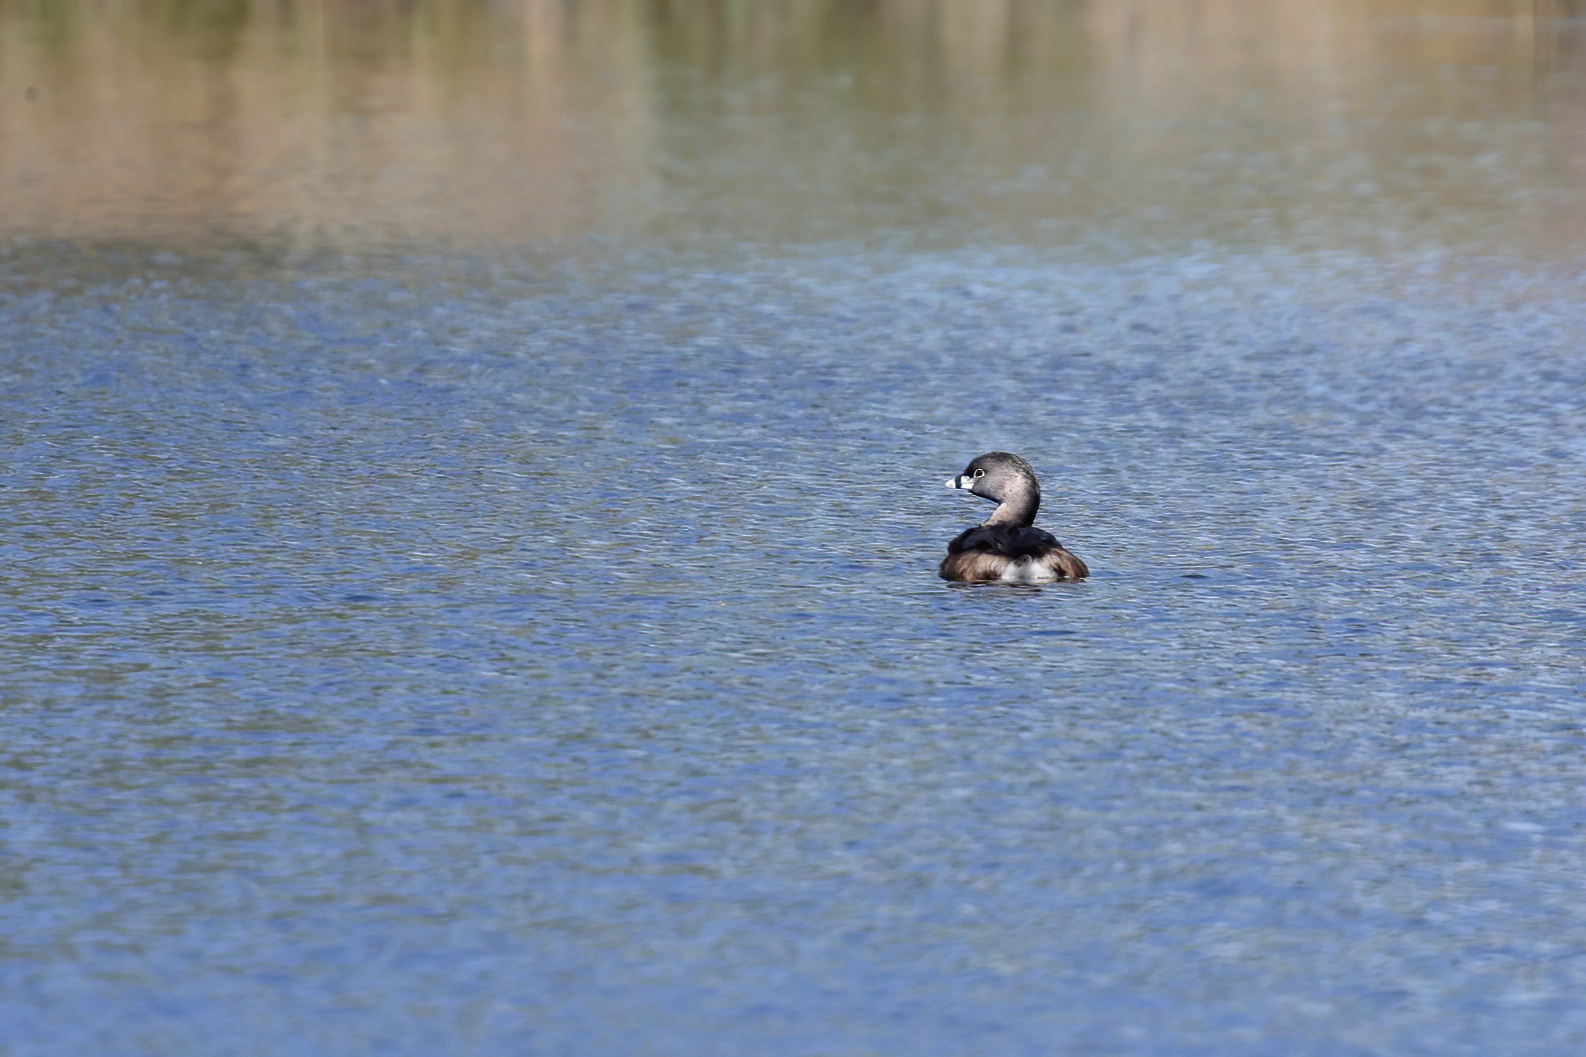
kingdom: Animalia
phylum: Chordata
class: Aves
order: Podicipediformes
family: Podicipedidae
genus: Podilymbus
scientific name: Podilymbus podiceps
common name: Pied-billed grebe
